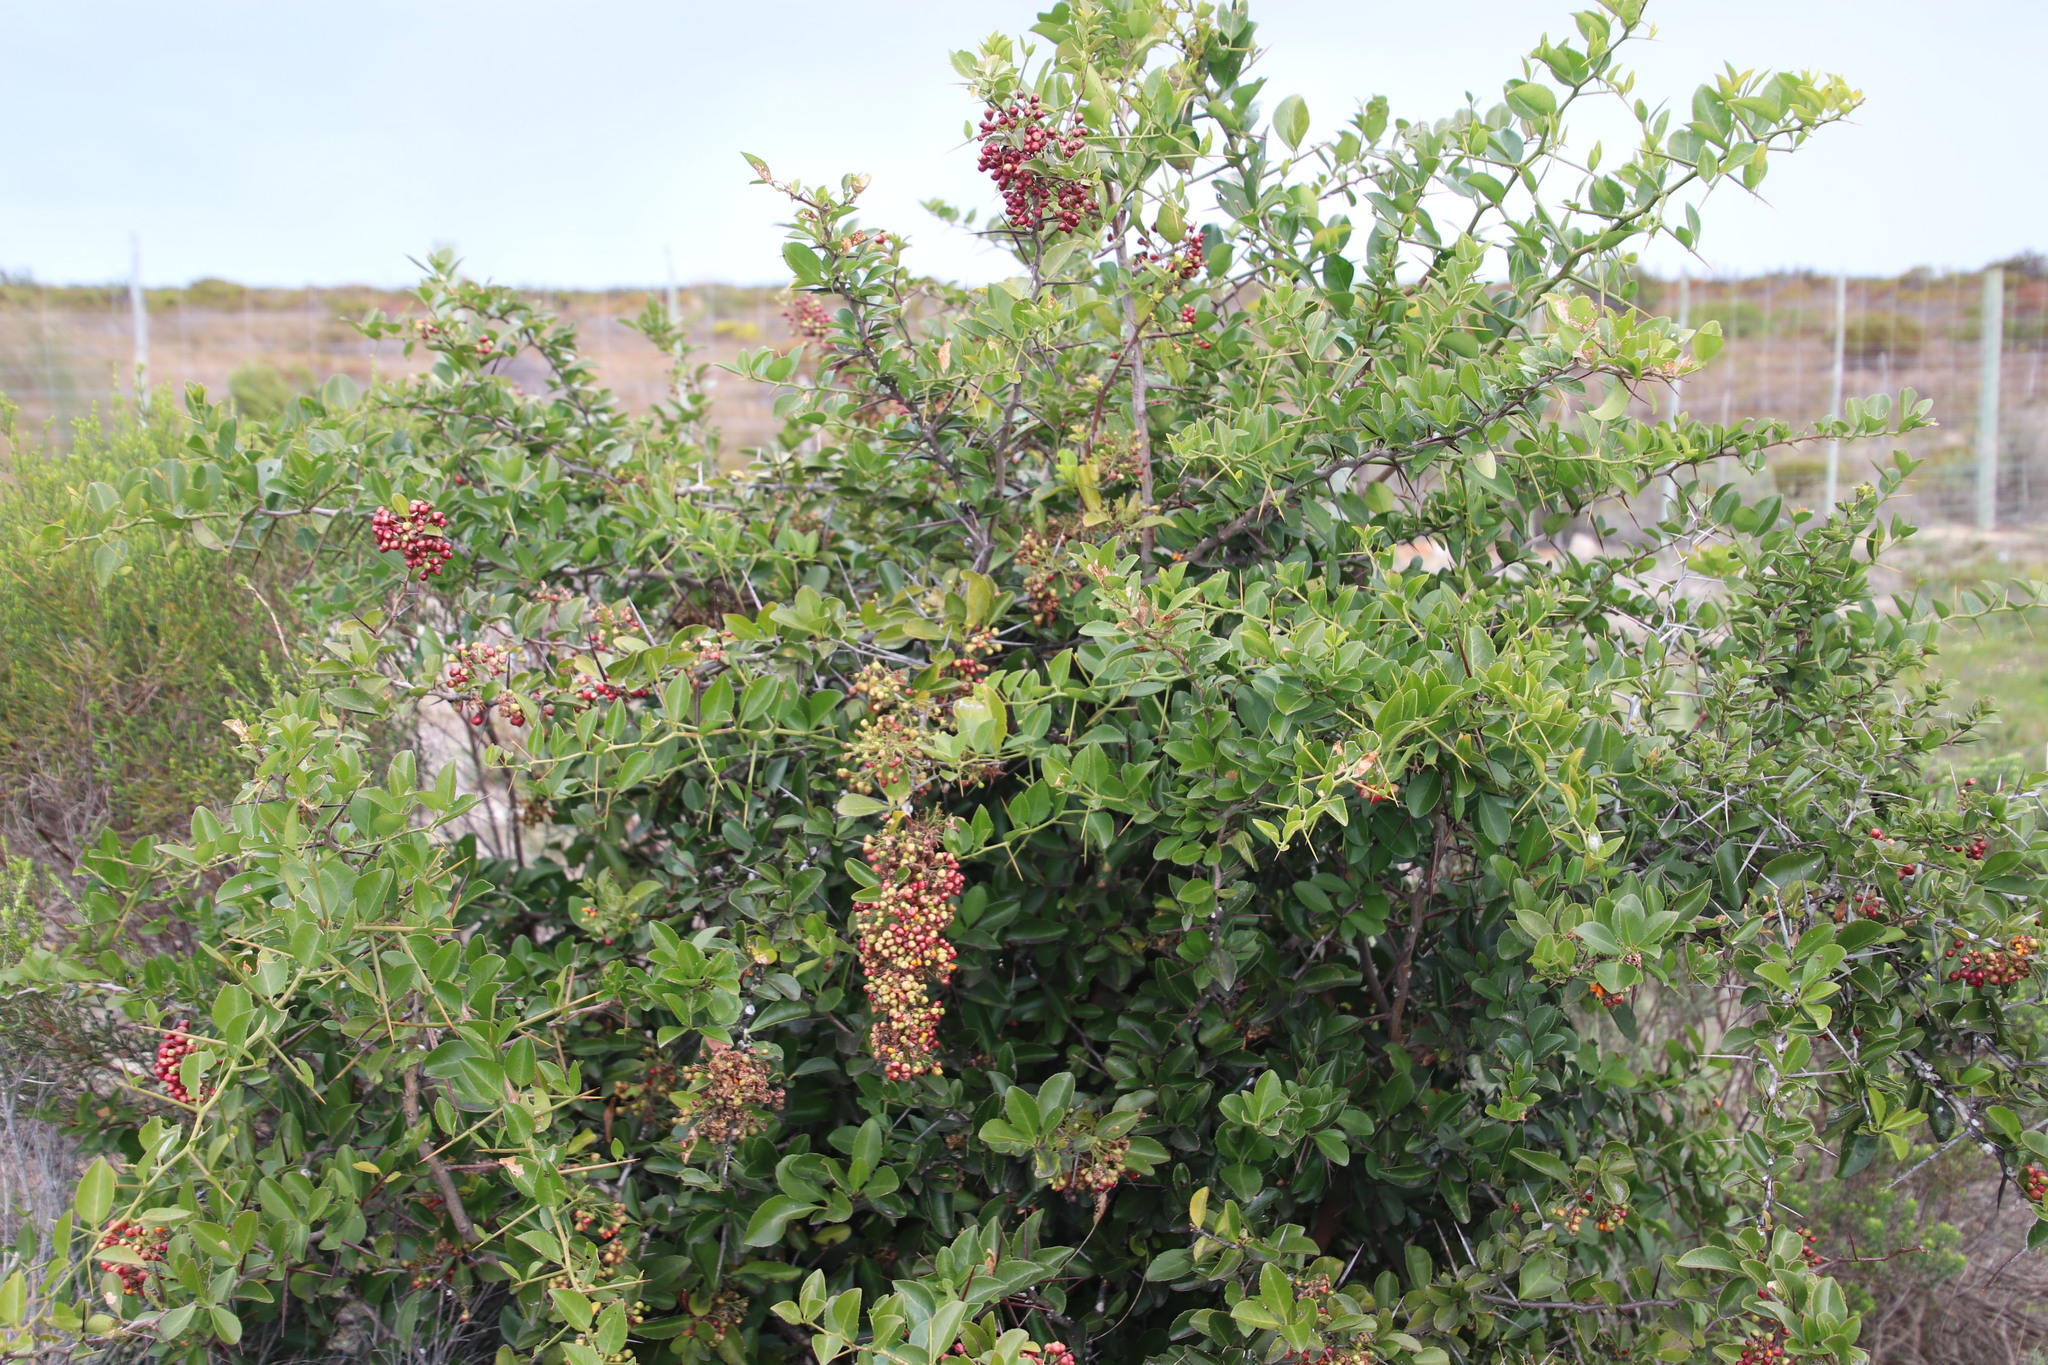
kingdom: Plantae
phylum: Tracheophyta
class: Magnoliopsida
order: Celastrales
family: Celastraceae
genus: Gymnosporia
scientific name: Gymnosporia nemorosa
